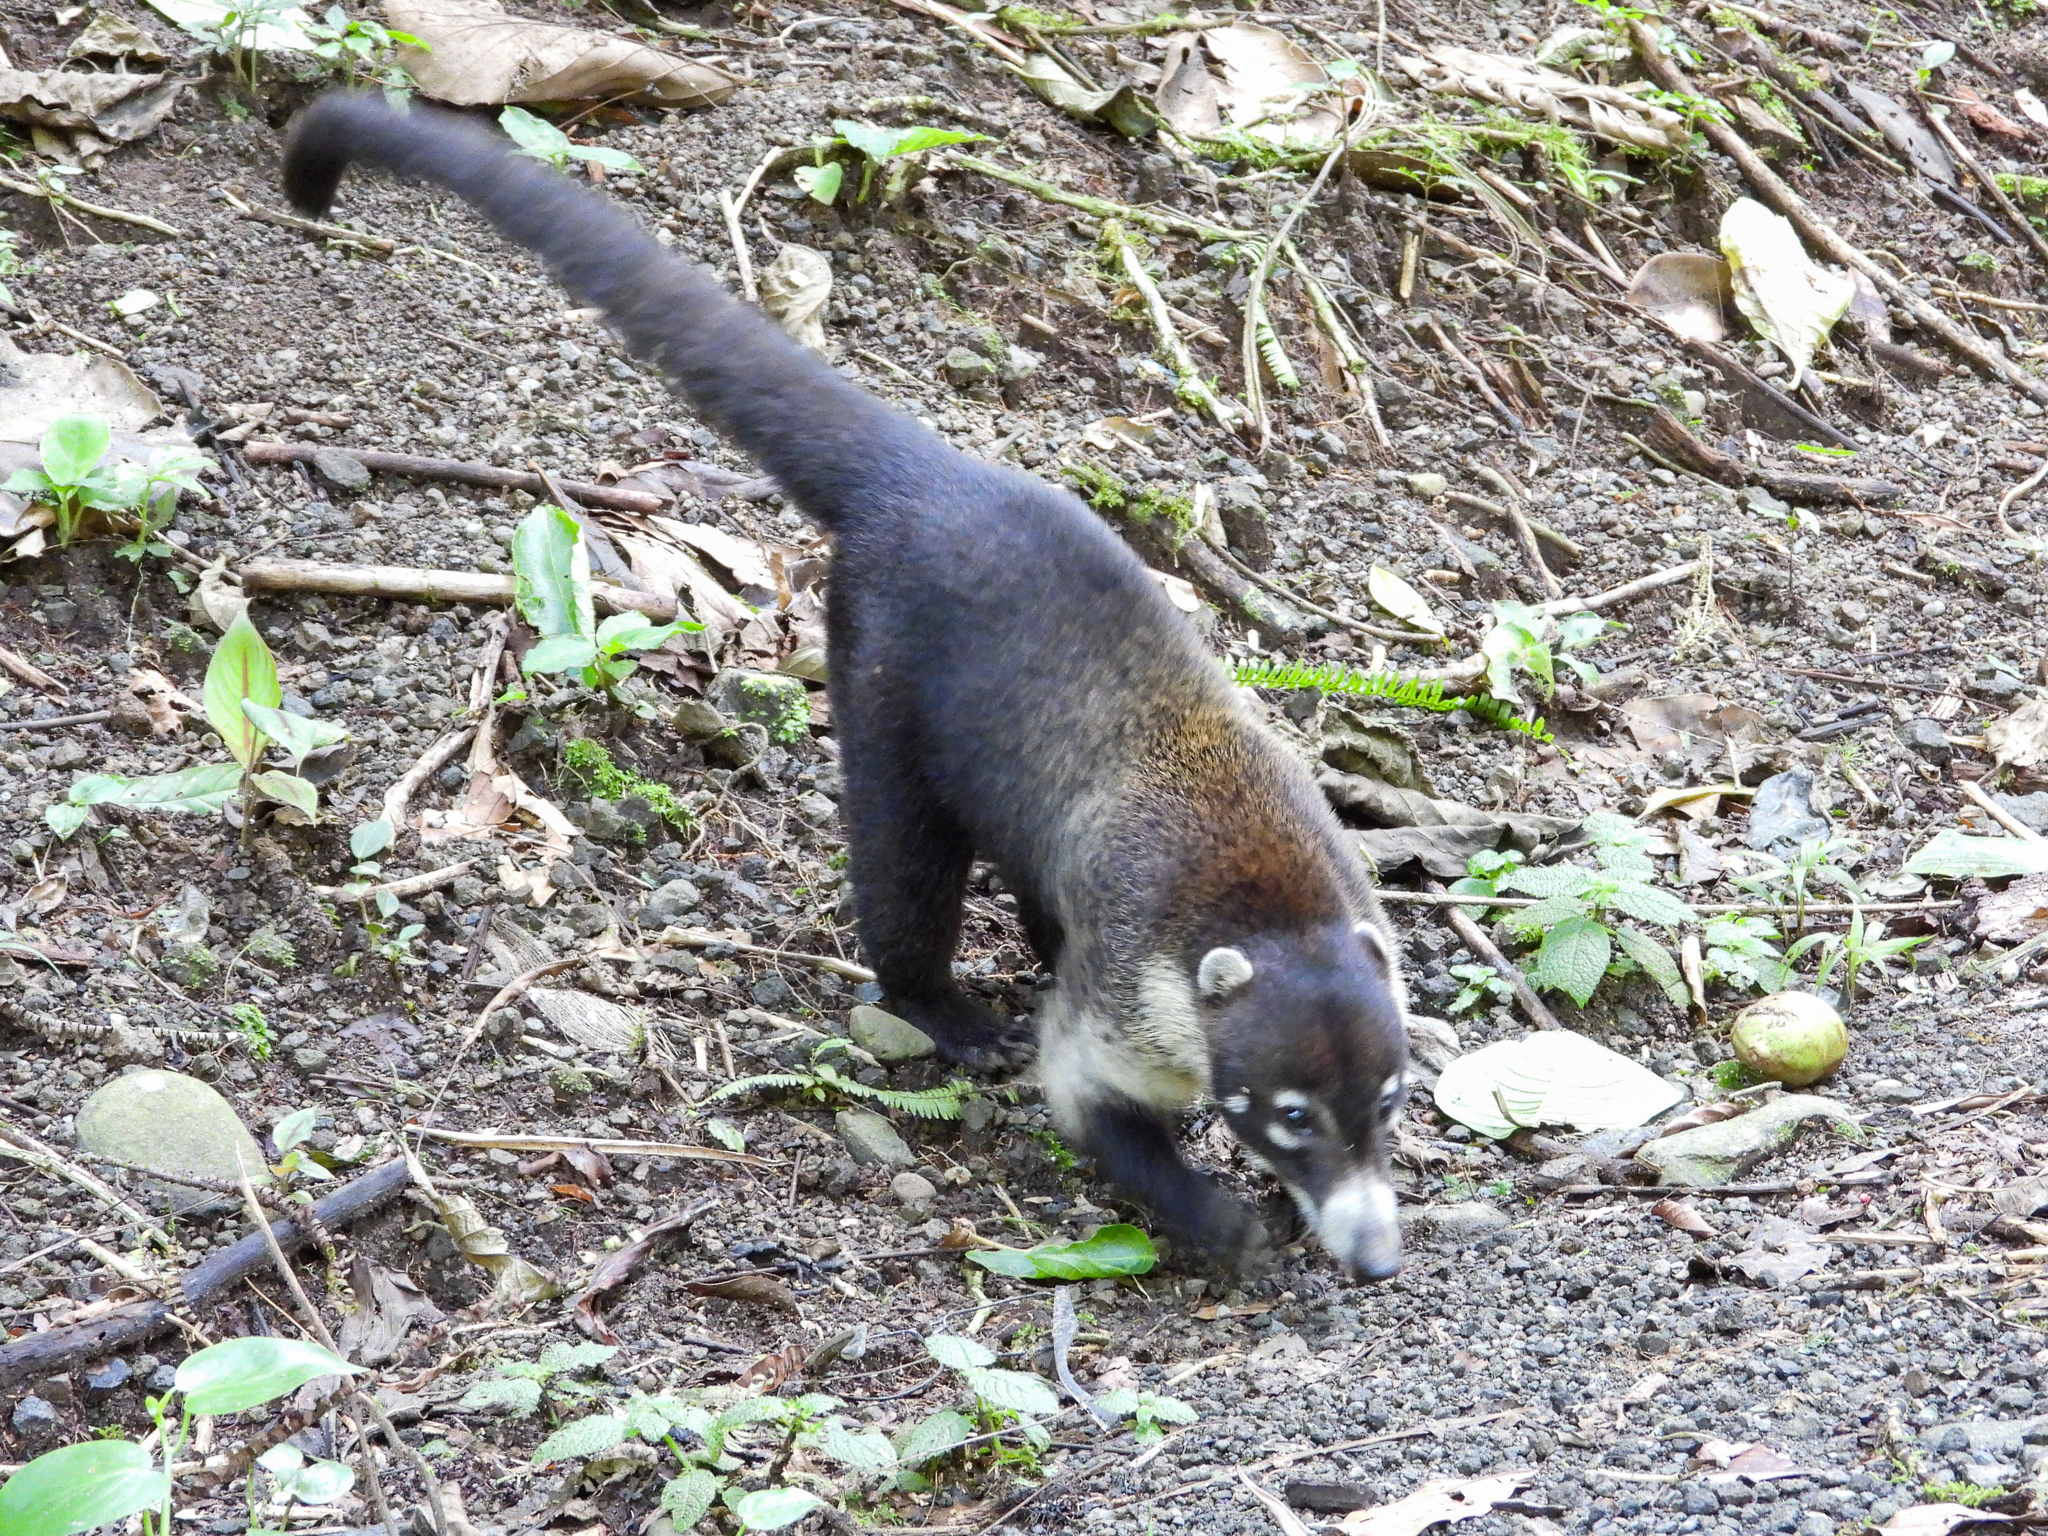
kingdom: Animalia
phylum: Chordata
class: Mammalia
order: Carnivora
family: Procyonidae
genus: Nasua
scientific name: Nasua narica
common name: White-nosed coati
